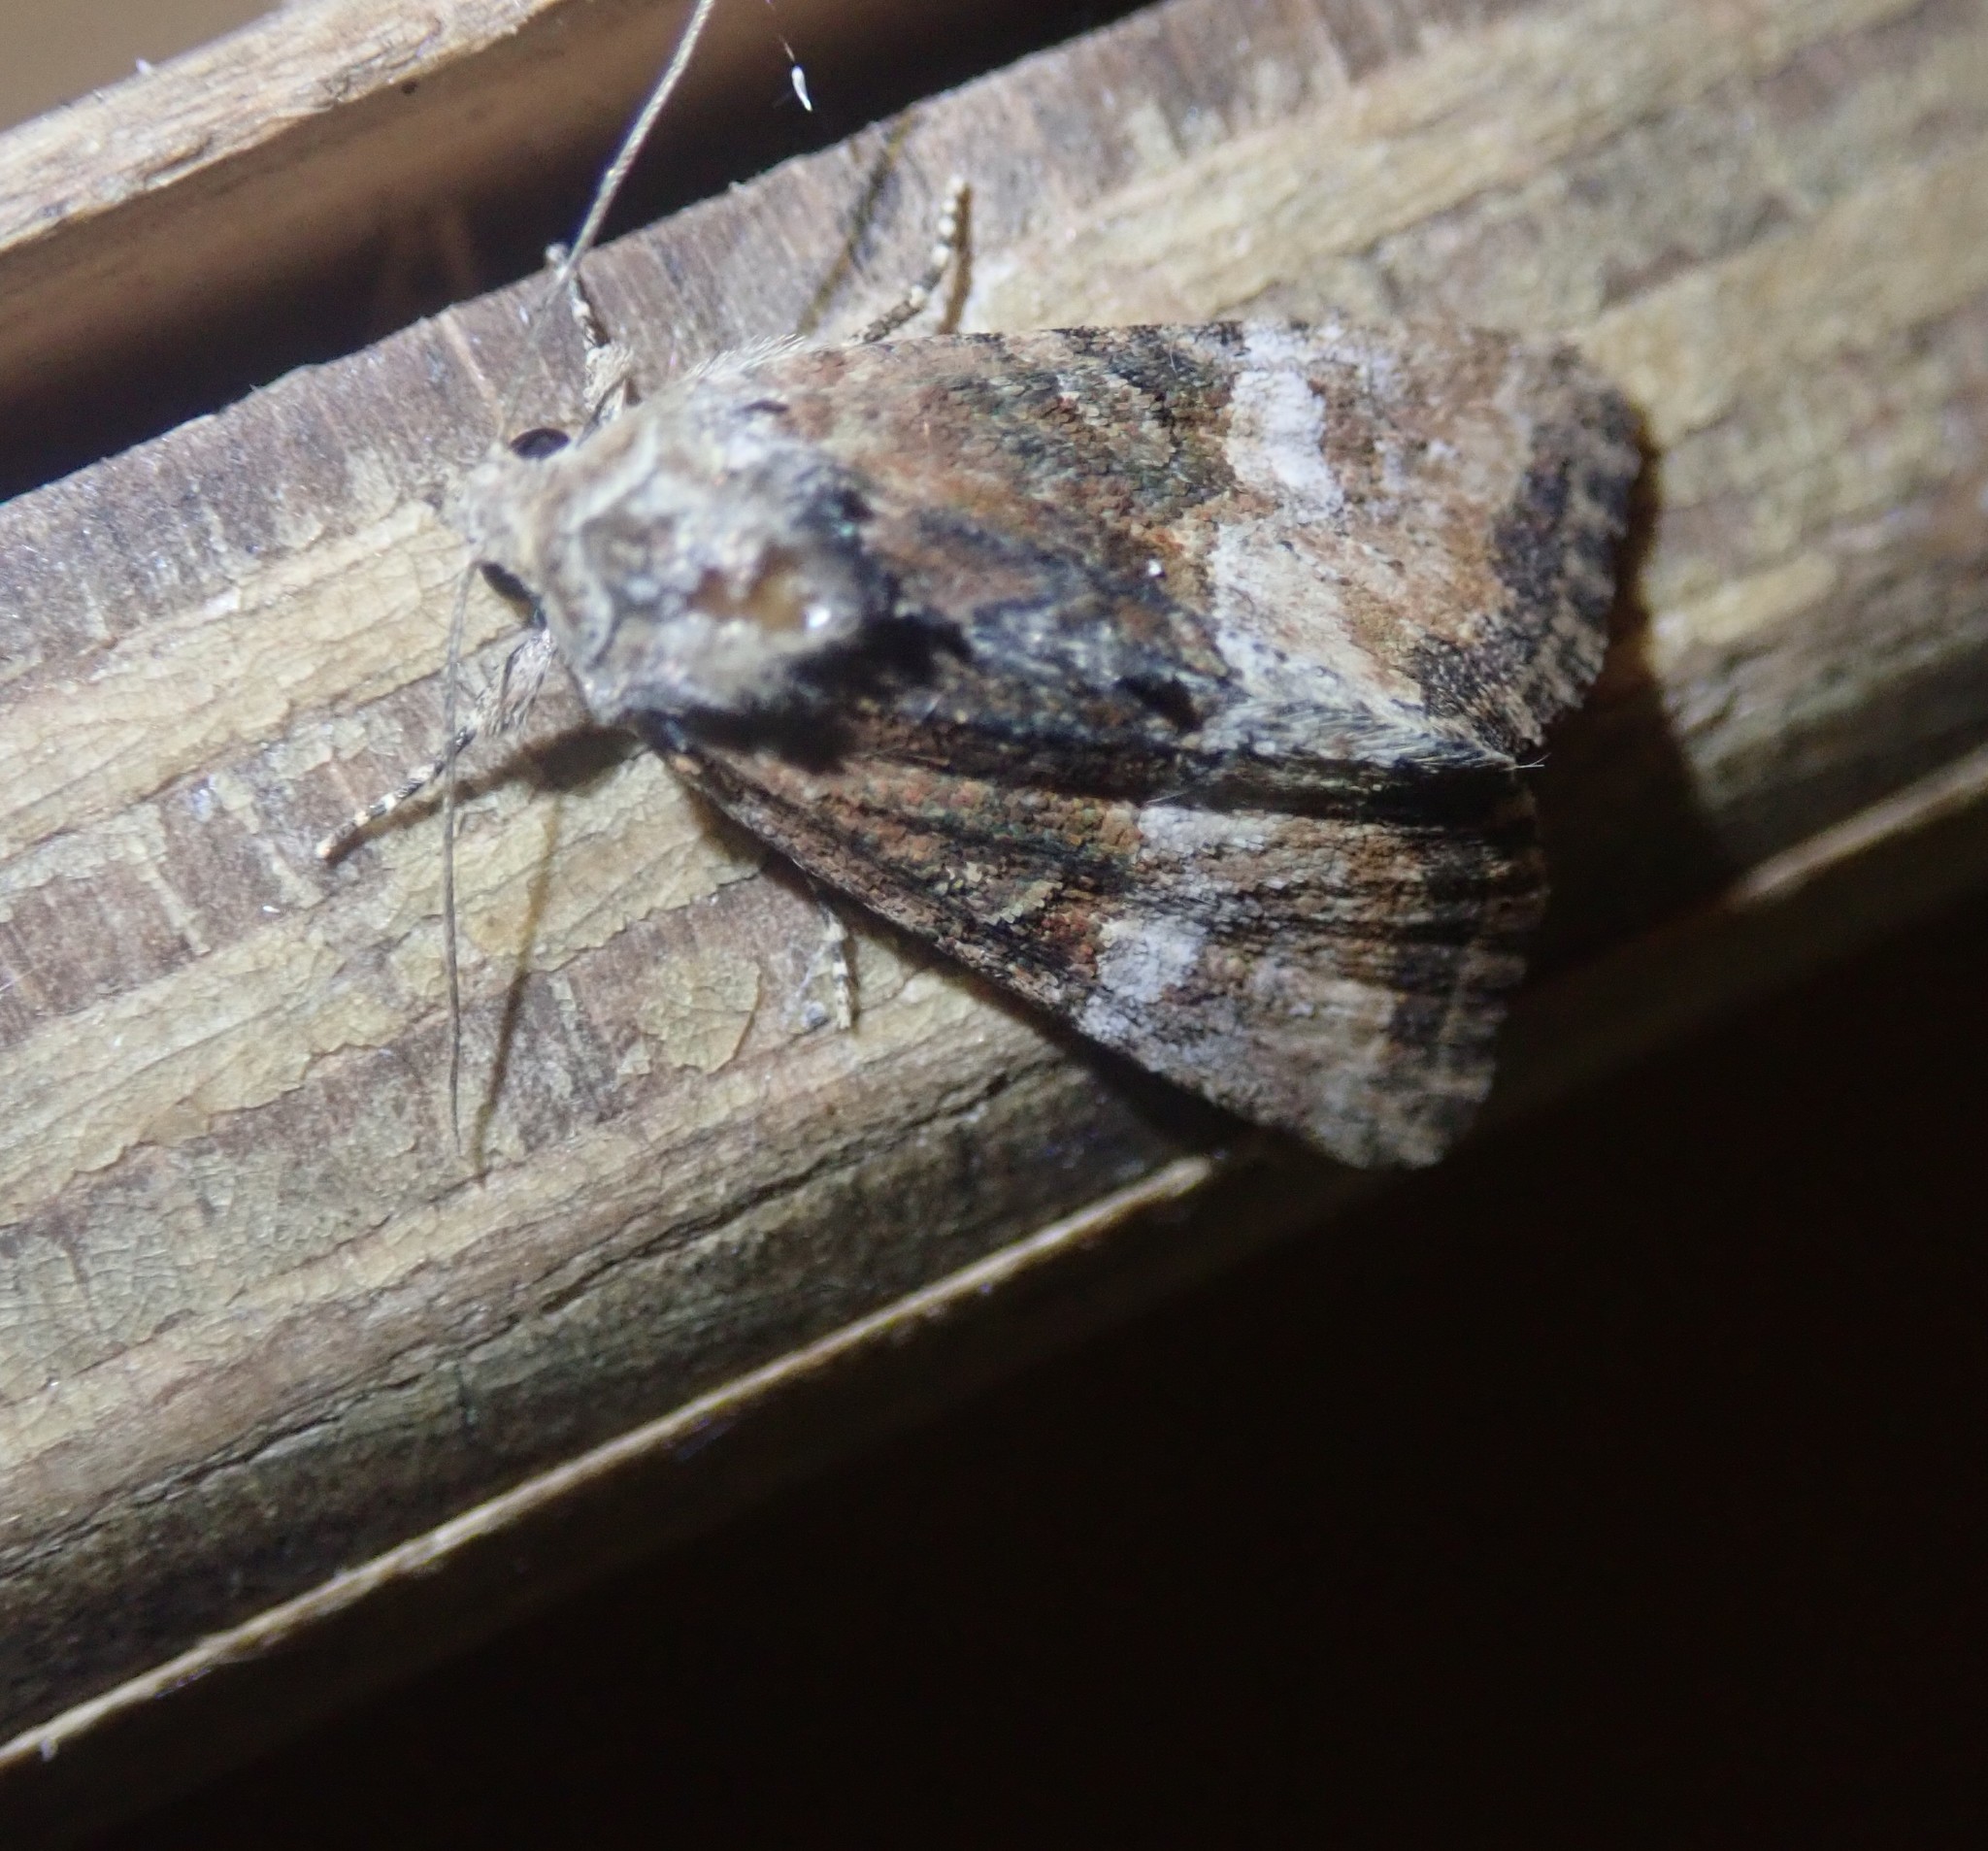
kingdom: Animalia
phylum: Arthropoda
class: Insecta
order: Lepidoptera
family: Noctuidae
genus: Mesoligia
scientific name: Mesoligia furuncula
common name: Cloaked minor
